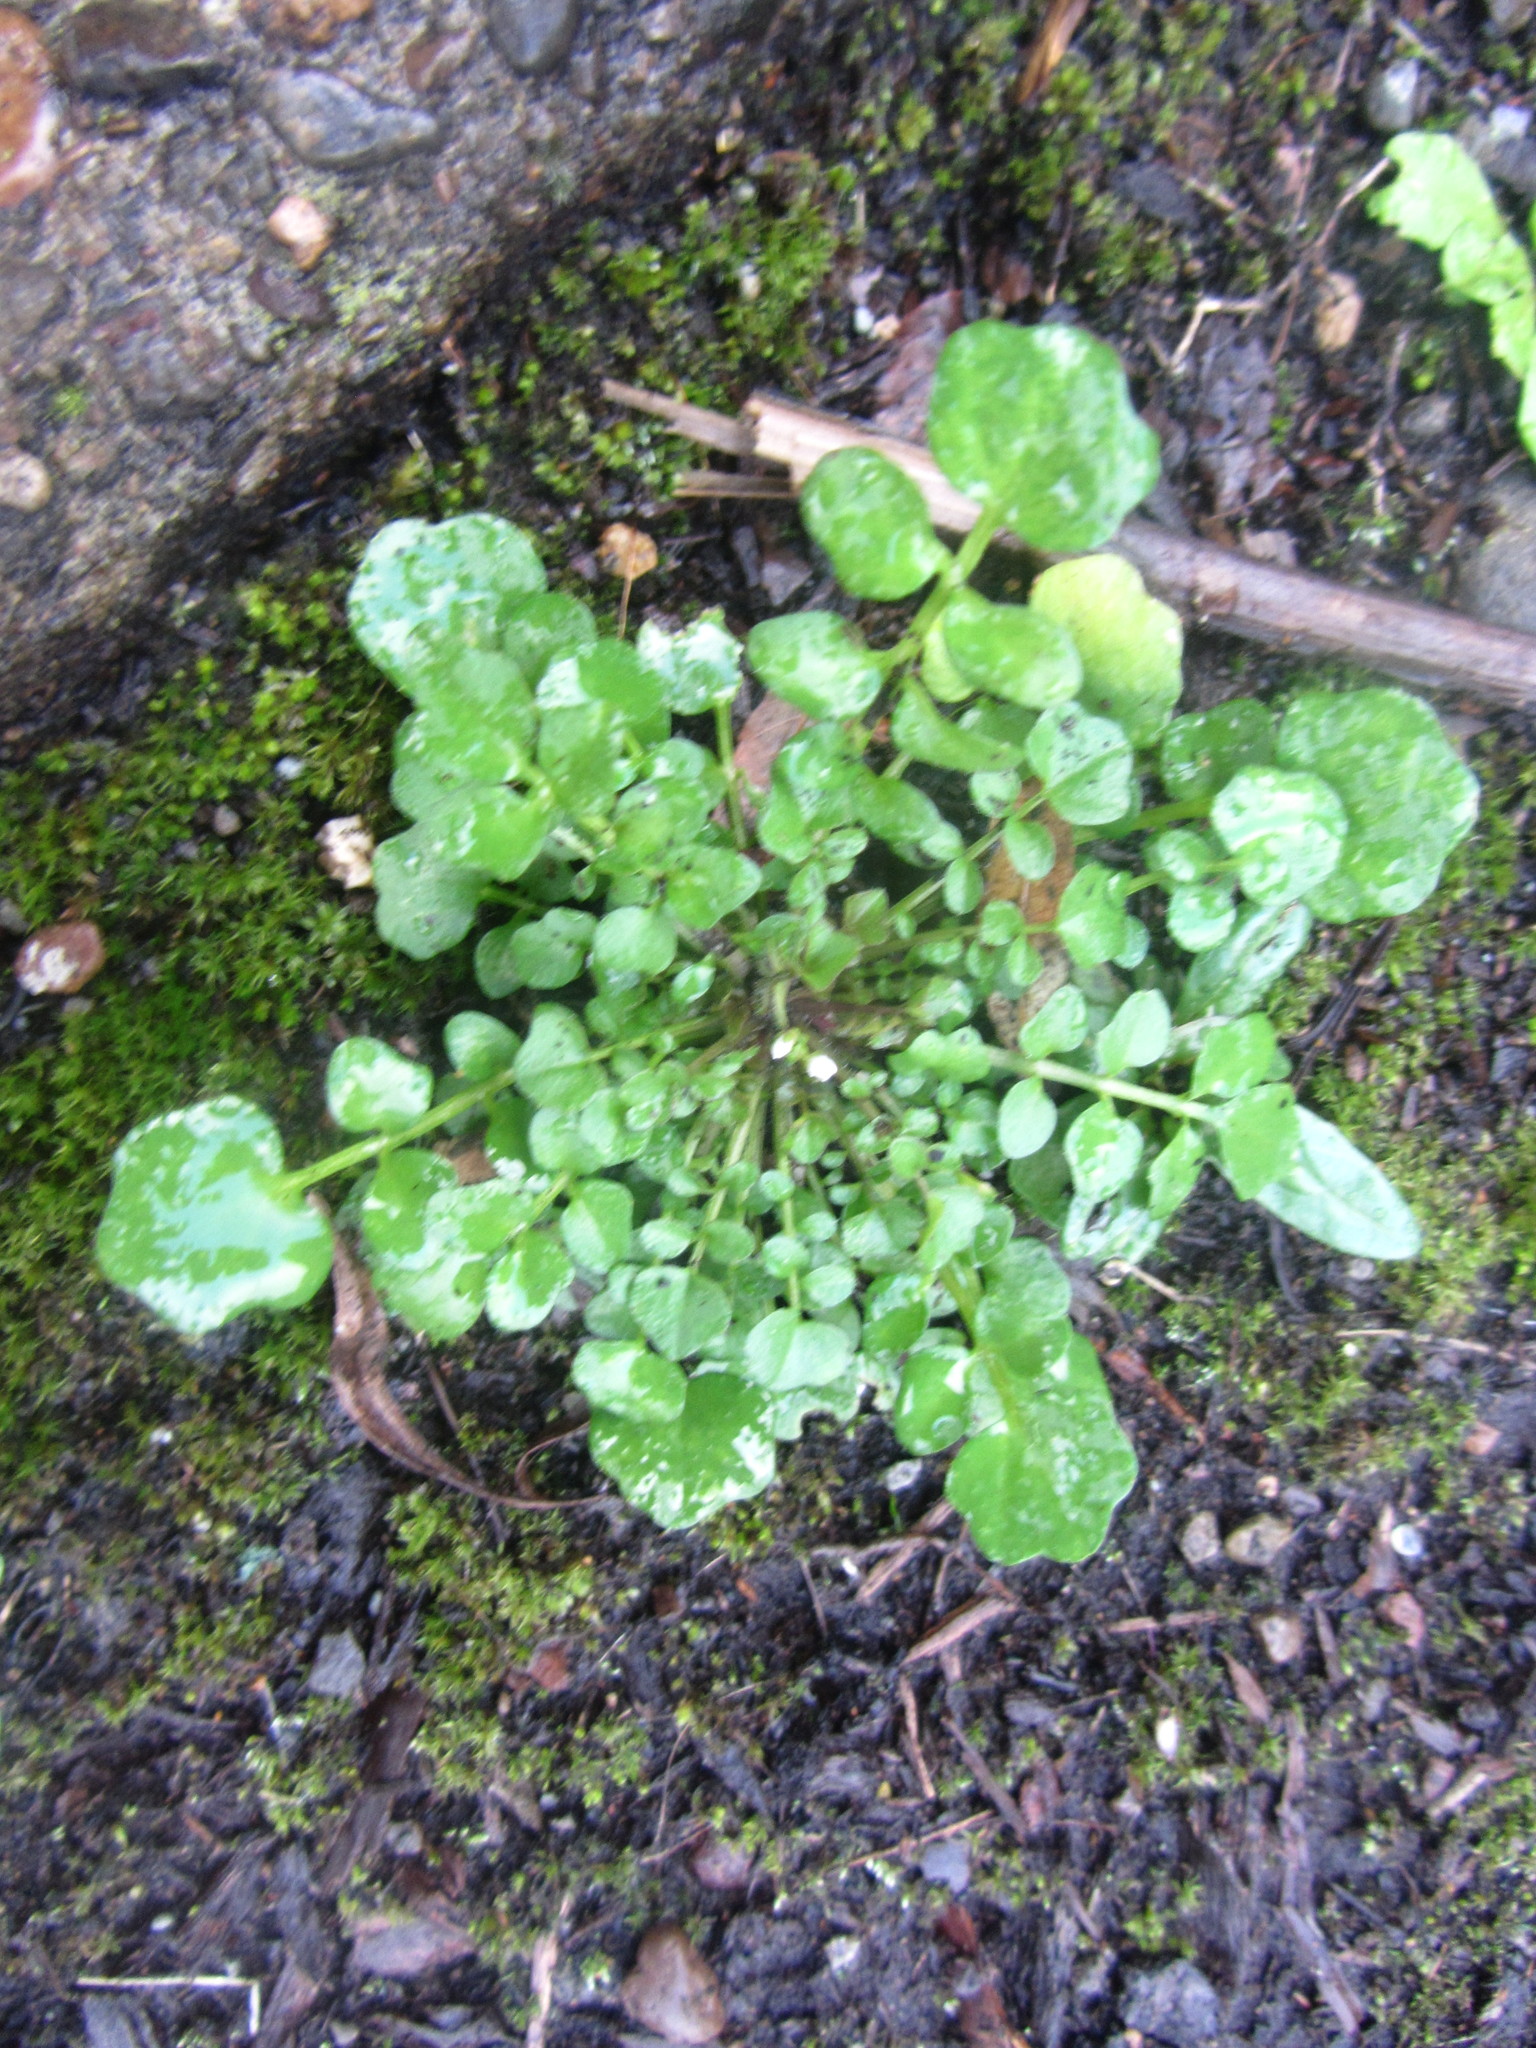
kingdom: Plantae
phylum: Tracheophyta
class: Magnoliopsida
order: Brassicales
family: Brassicaceae
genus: Cardamine
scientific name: Cardamine hirsuta
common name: Hairy bittercress
